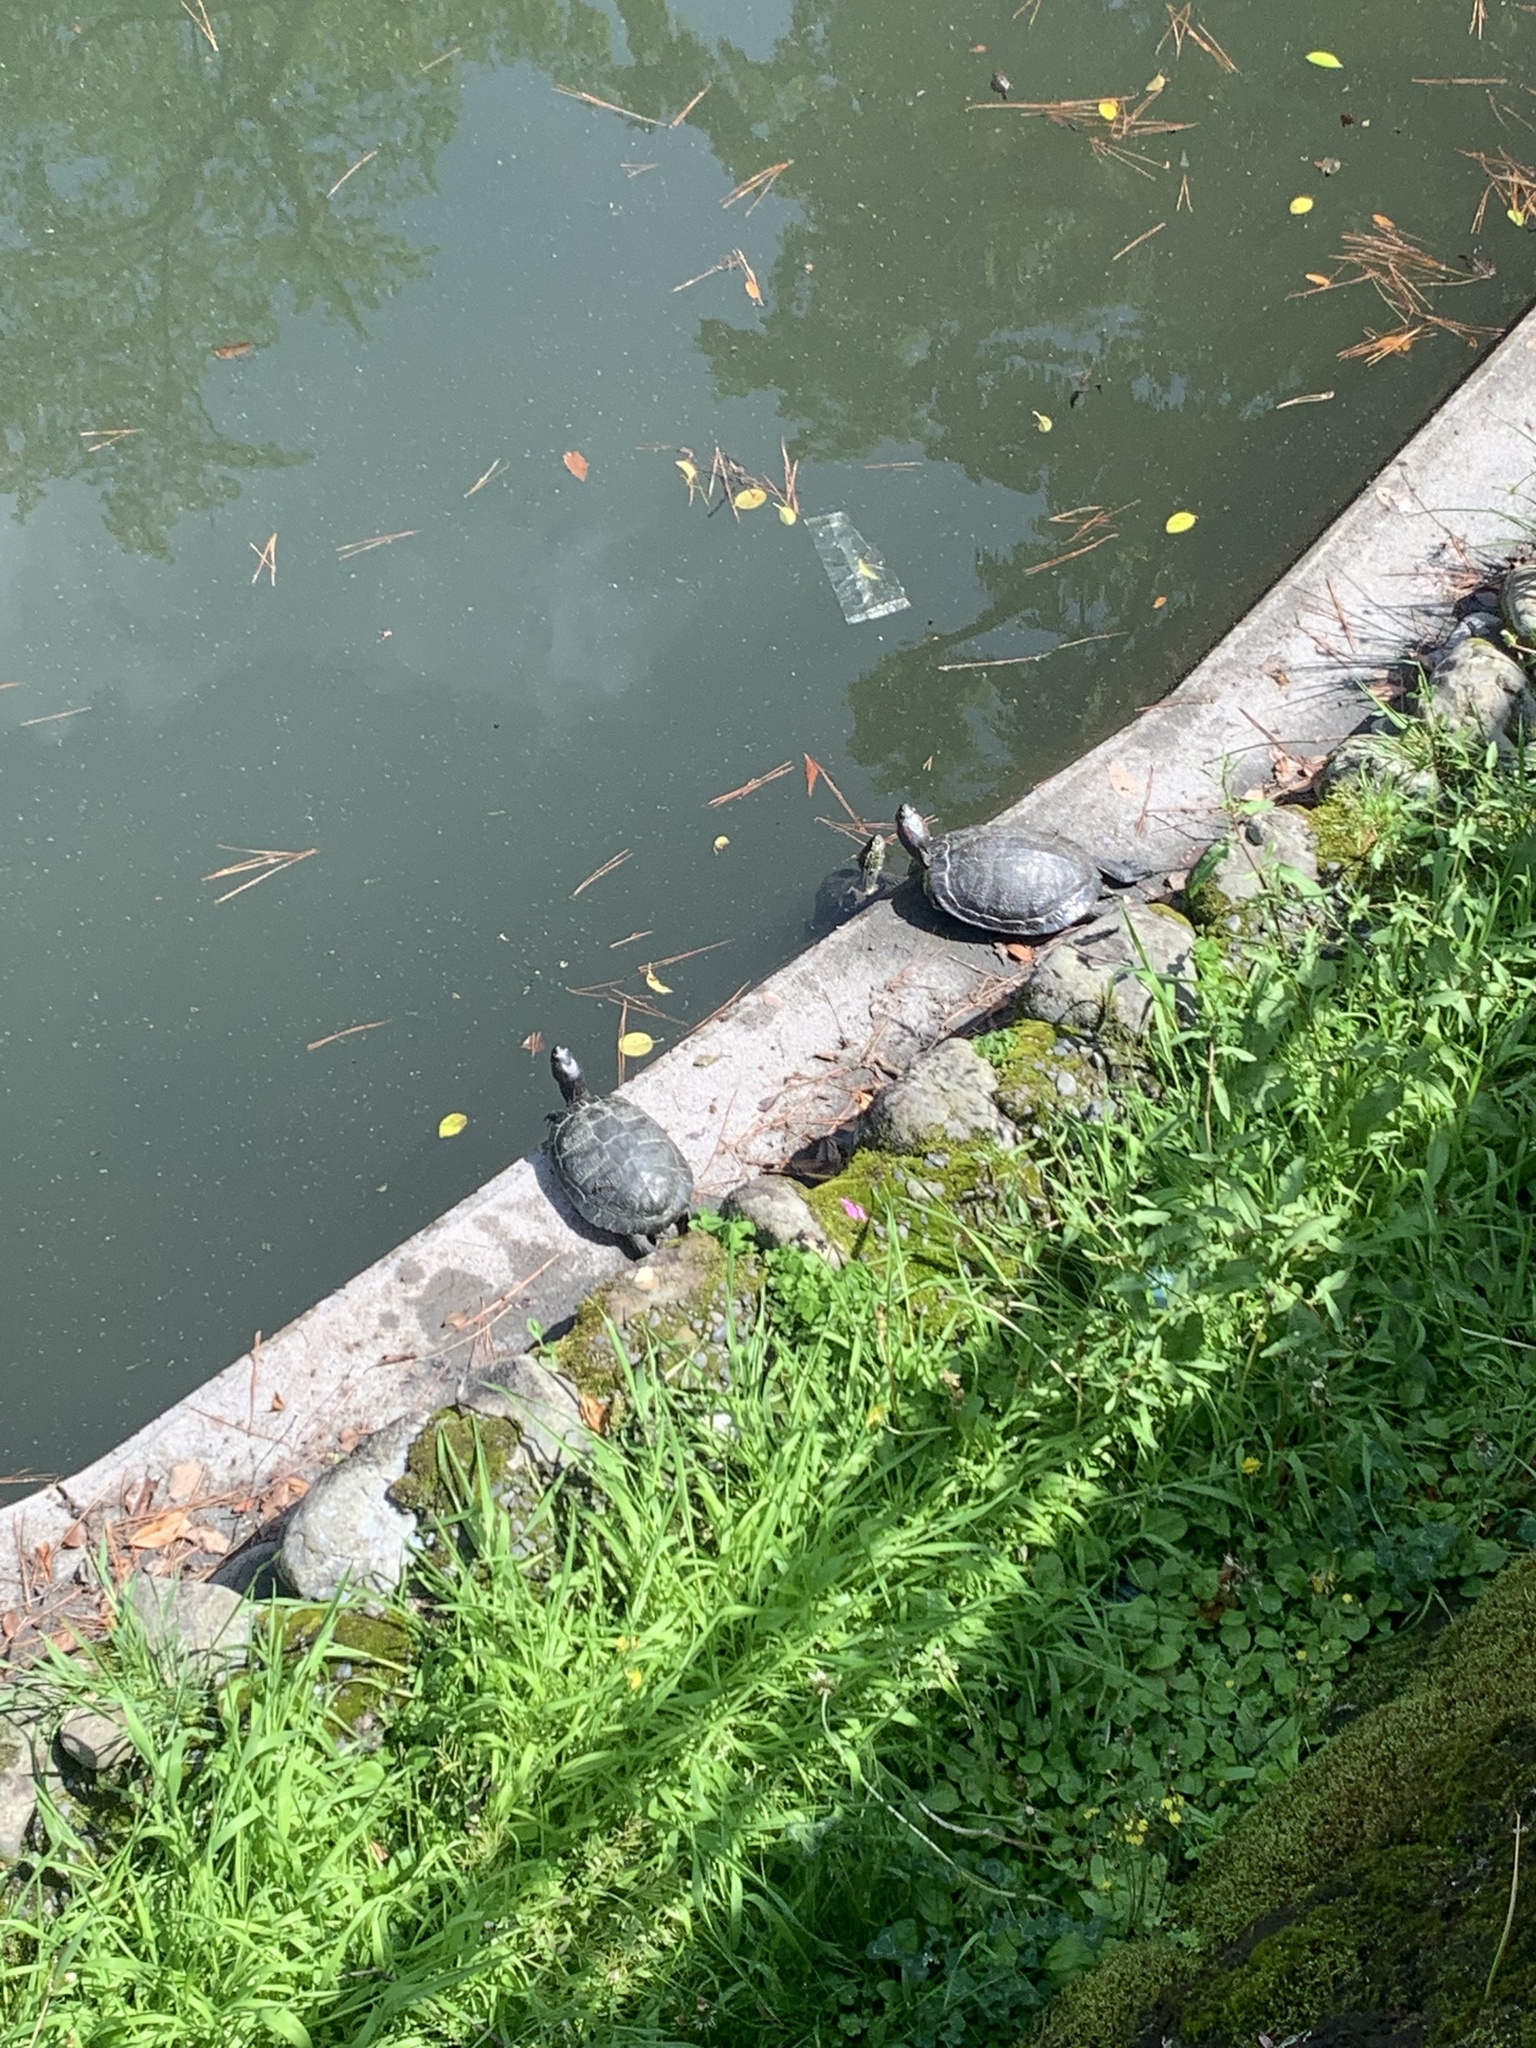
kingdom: Animalia
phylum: Chordata
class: Testudines
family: Emydidae
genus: Trachemys
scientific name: Trachemys scripta
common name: Slider
